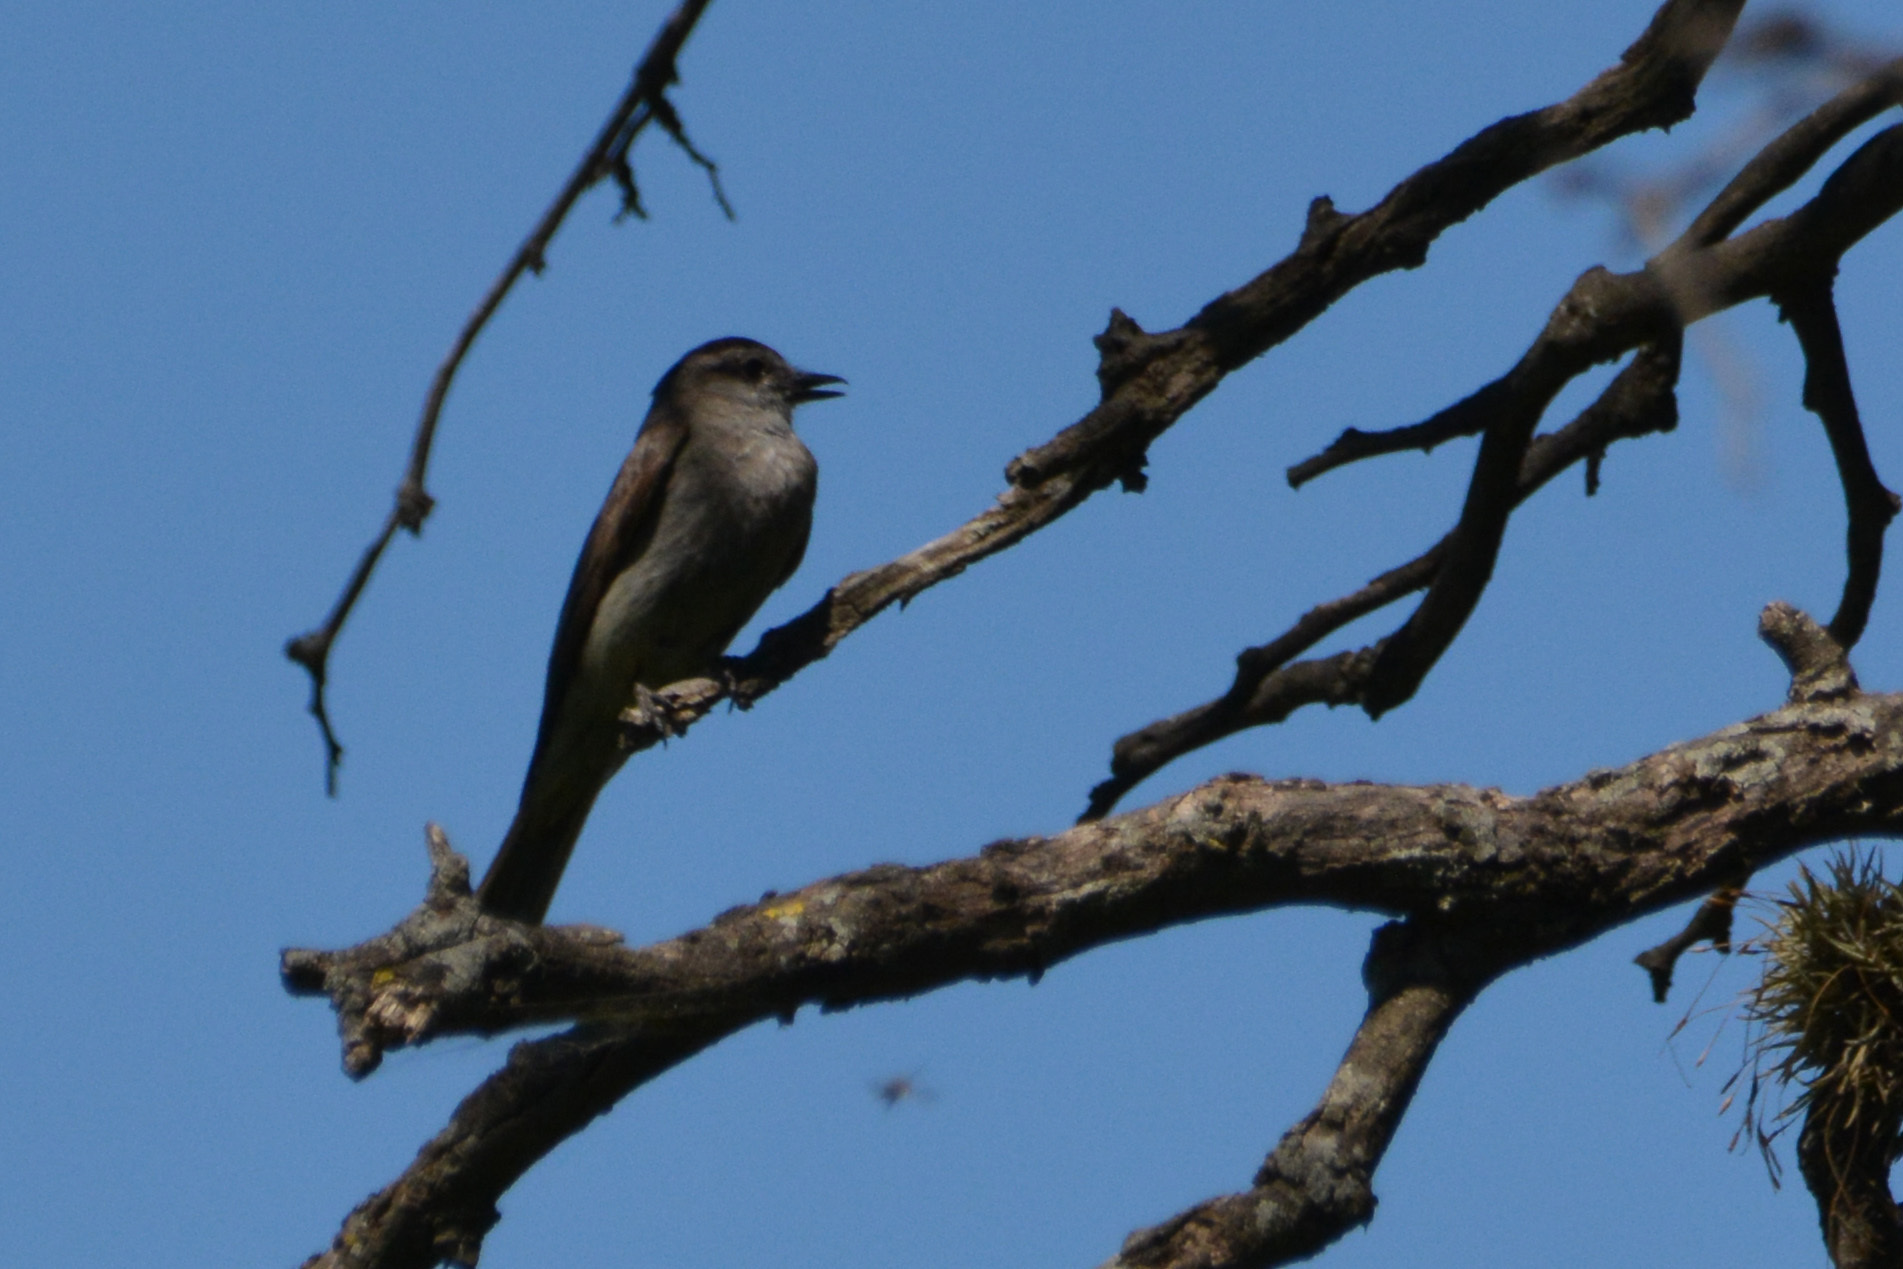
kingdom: Animalia
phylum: Chordata
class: Aves
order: Passeriformes
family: Tyrannidae
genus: Empidonomus
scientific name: Empidonomus aurantioatrocristatus
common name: Crowned slaty flycatcher
